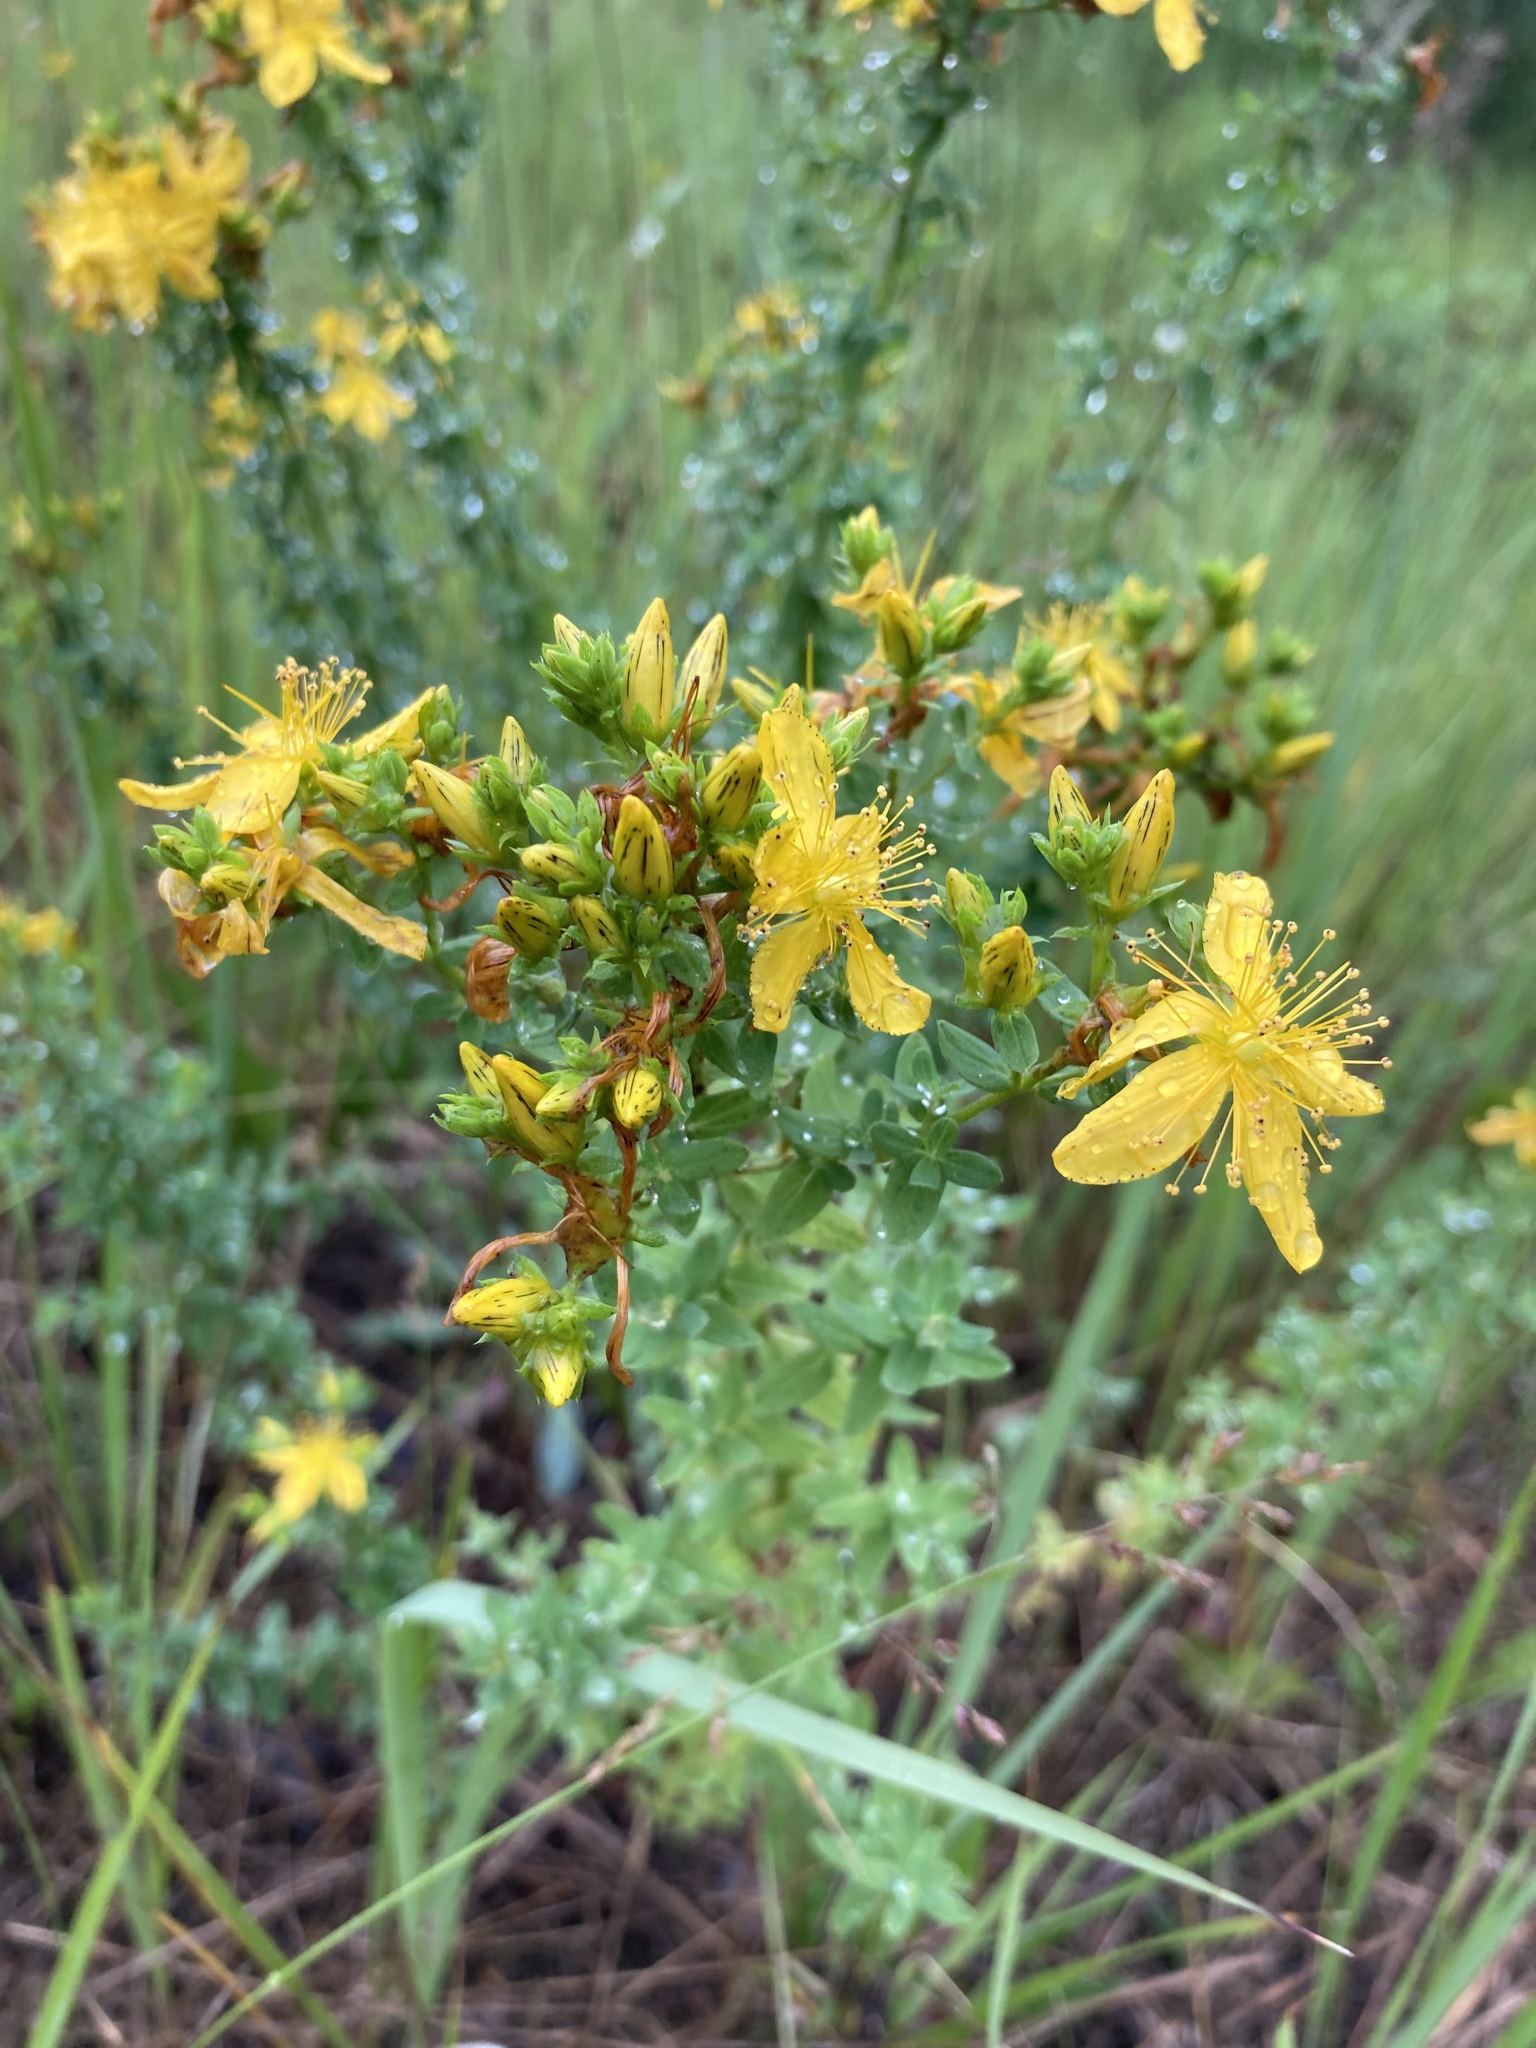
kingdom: Plantae
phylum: Tracheophyta
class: Magnoliopsida
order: Malpighiales
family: Hypericaceae
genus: Hypericum
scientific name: Hypericum perforatum
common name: Common st. johnswort
